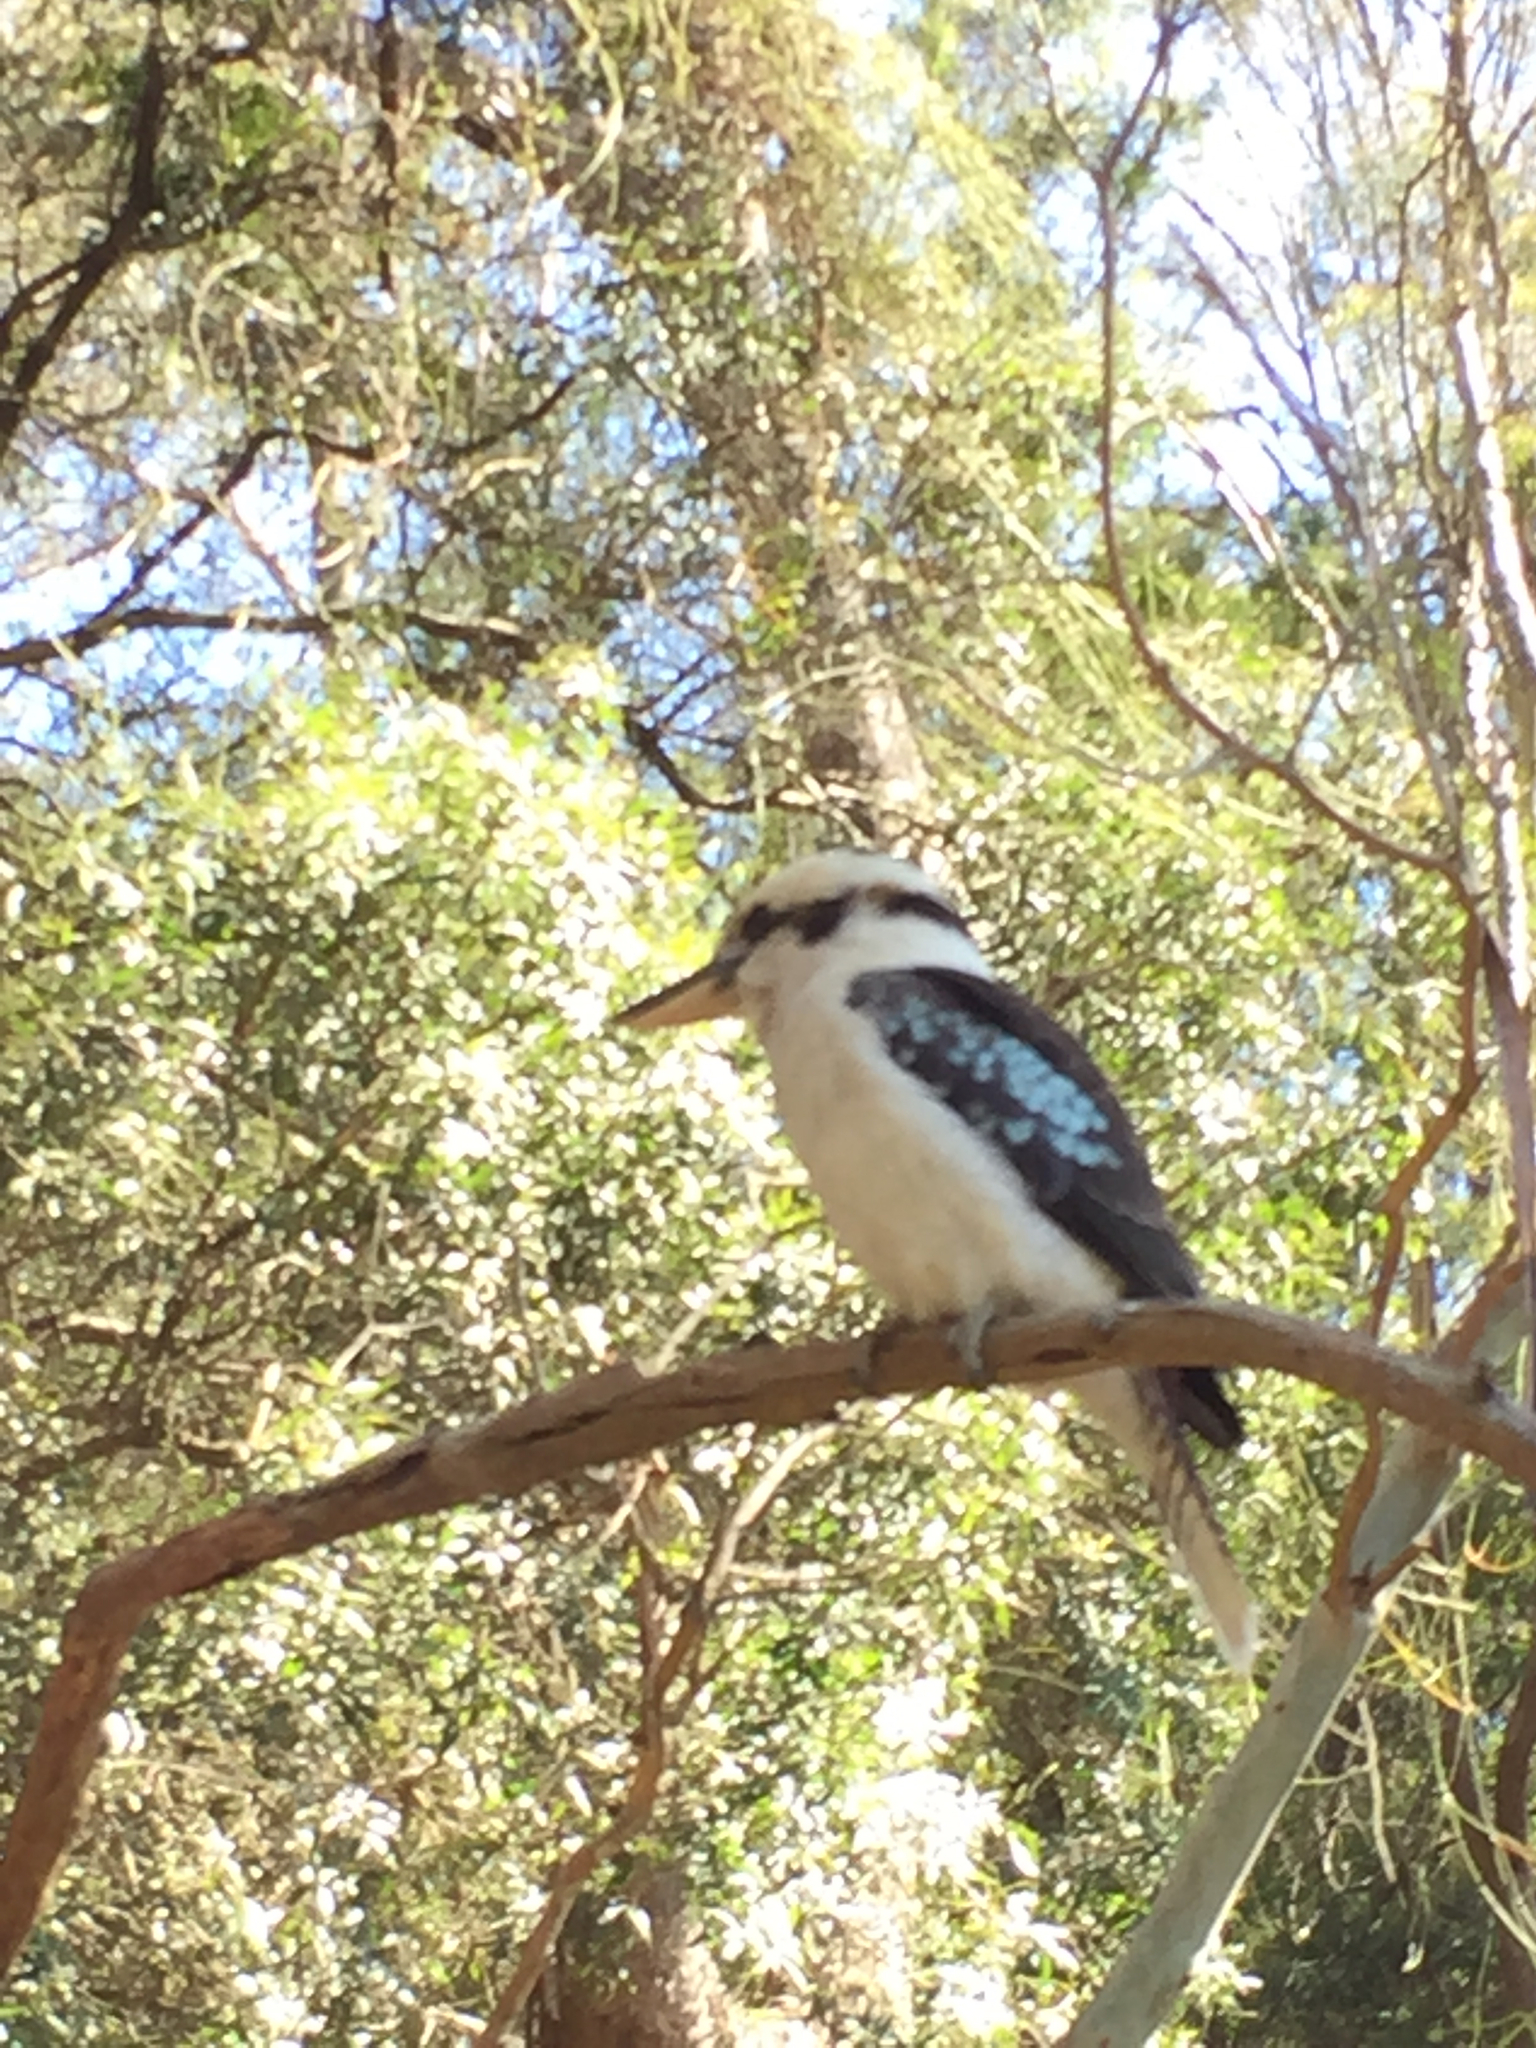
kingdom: Animalia
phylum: Chordata
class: Aves
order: Coraciiformes
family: Alcedinidae
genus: Dacelo
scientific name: Dacelo novaeguineae
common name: Laughing kookaburra
